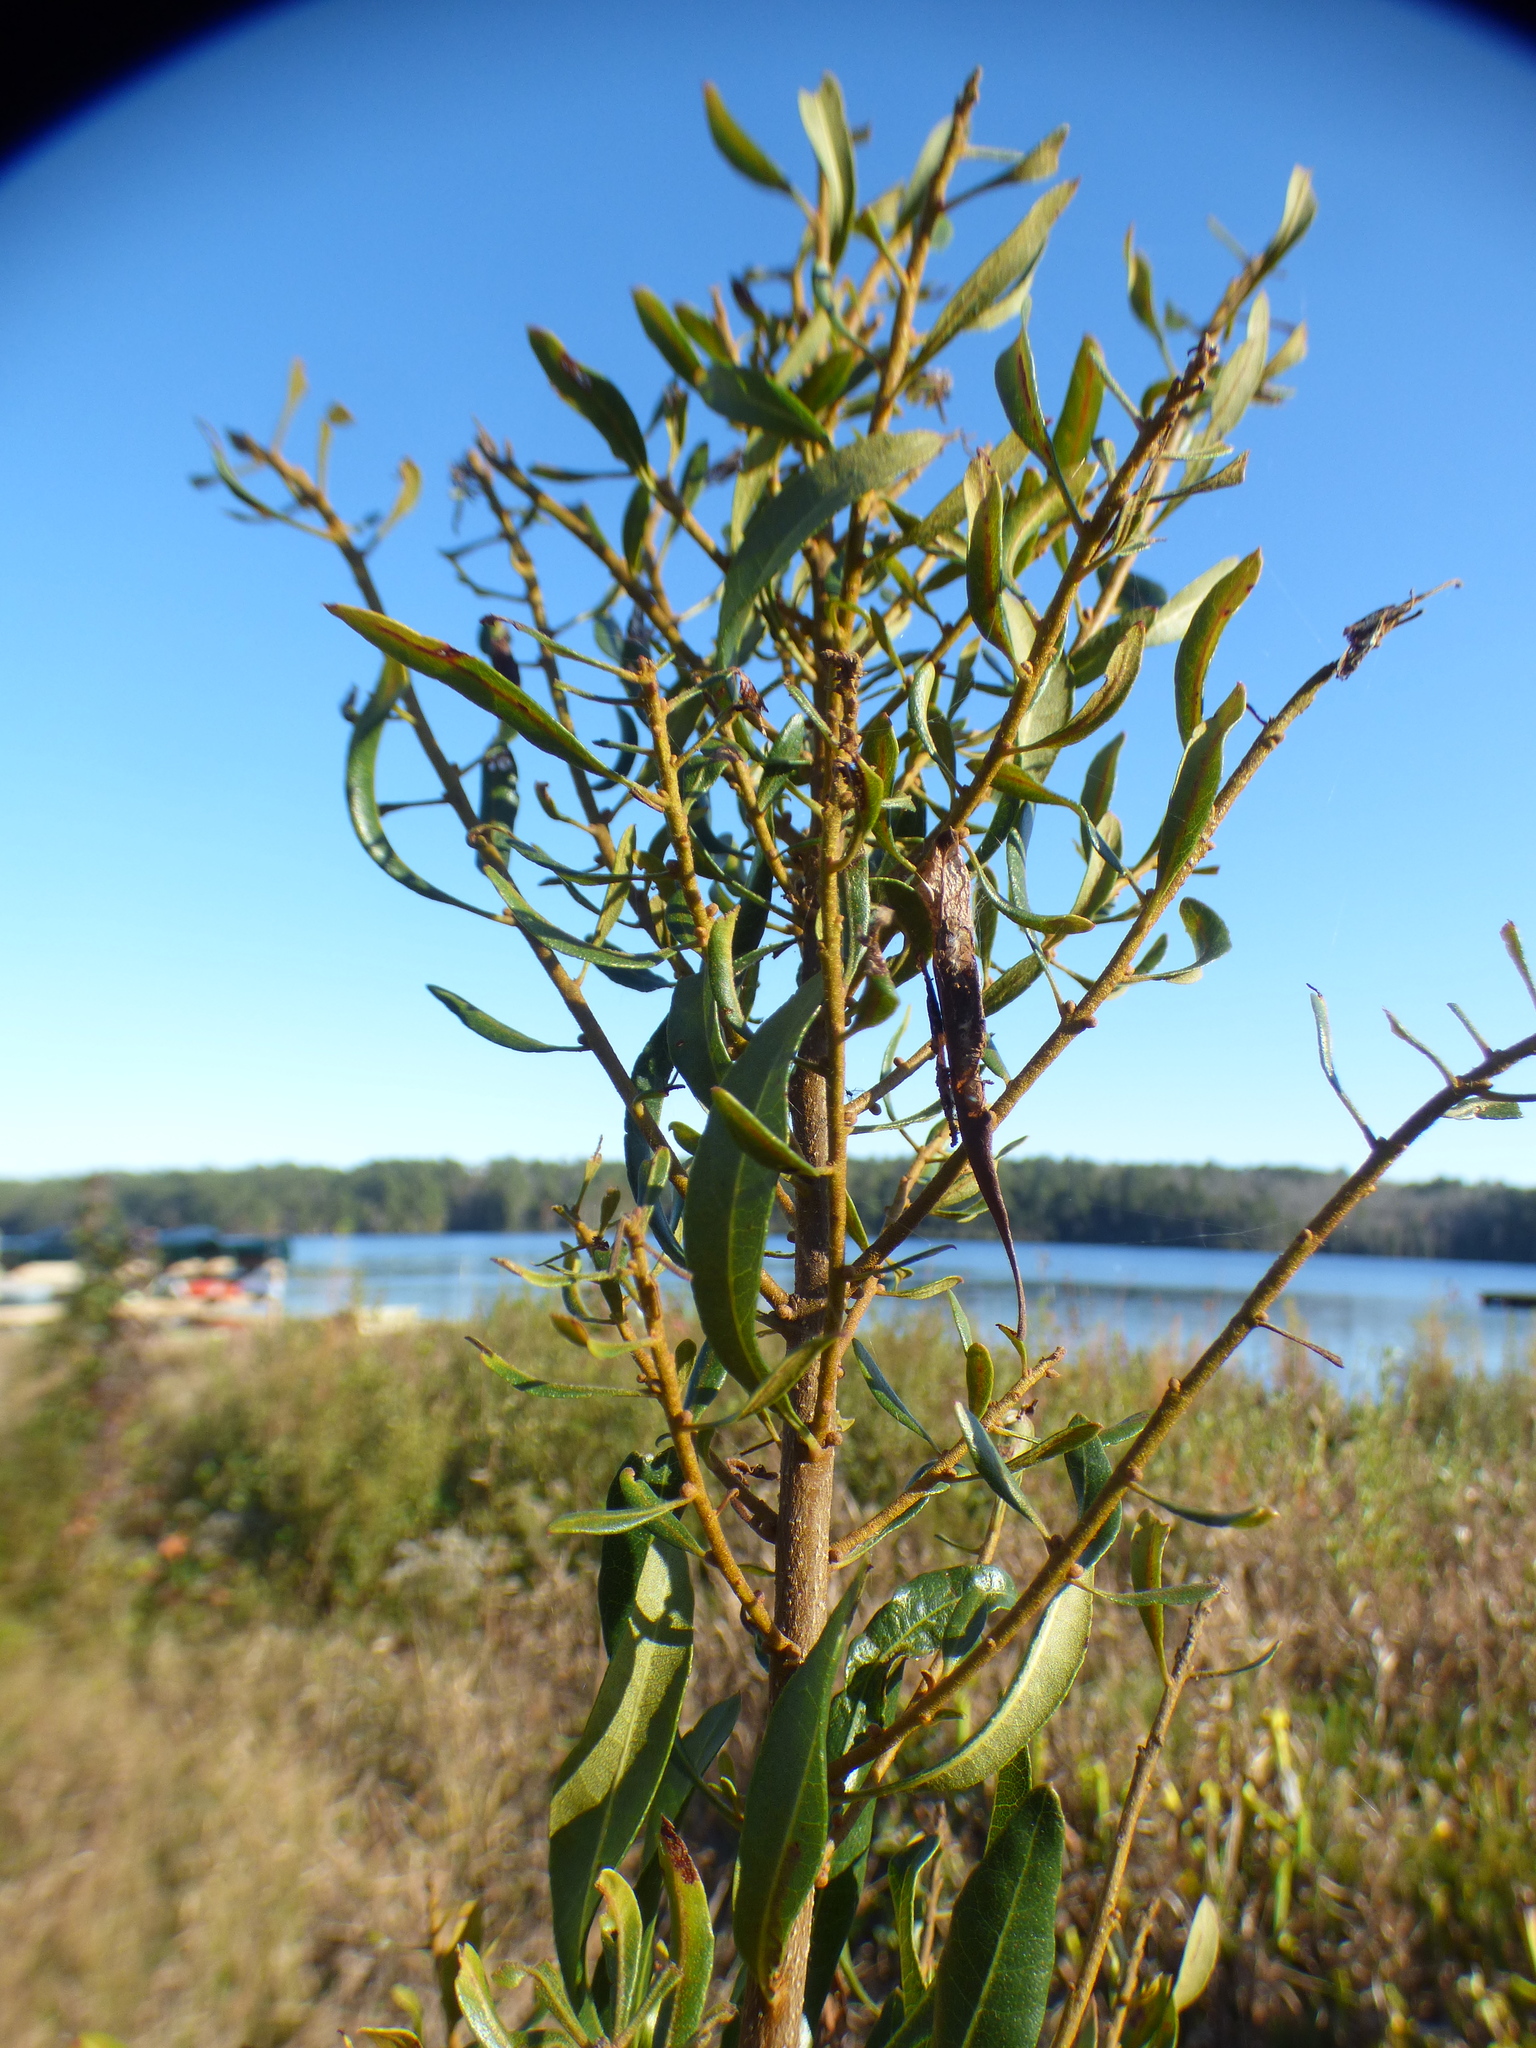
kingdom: Plantae
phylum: Tracheophyta
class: Magnoliopsida
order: Fagales
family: Myricaceae
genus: Morella
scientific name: Morella cerifera
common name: Wax myrtle
